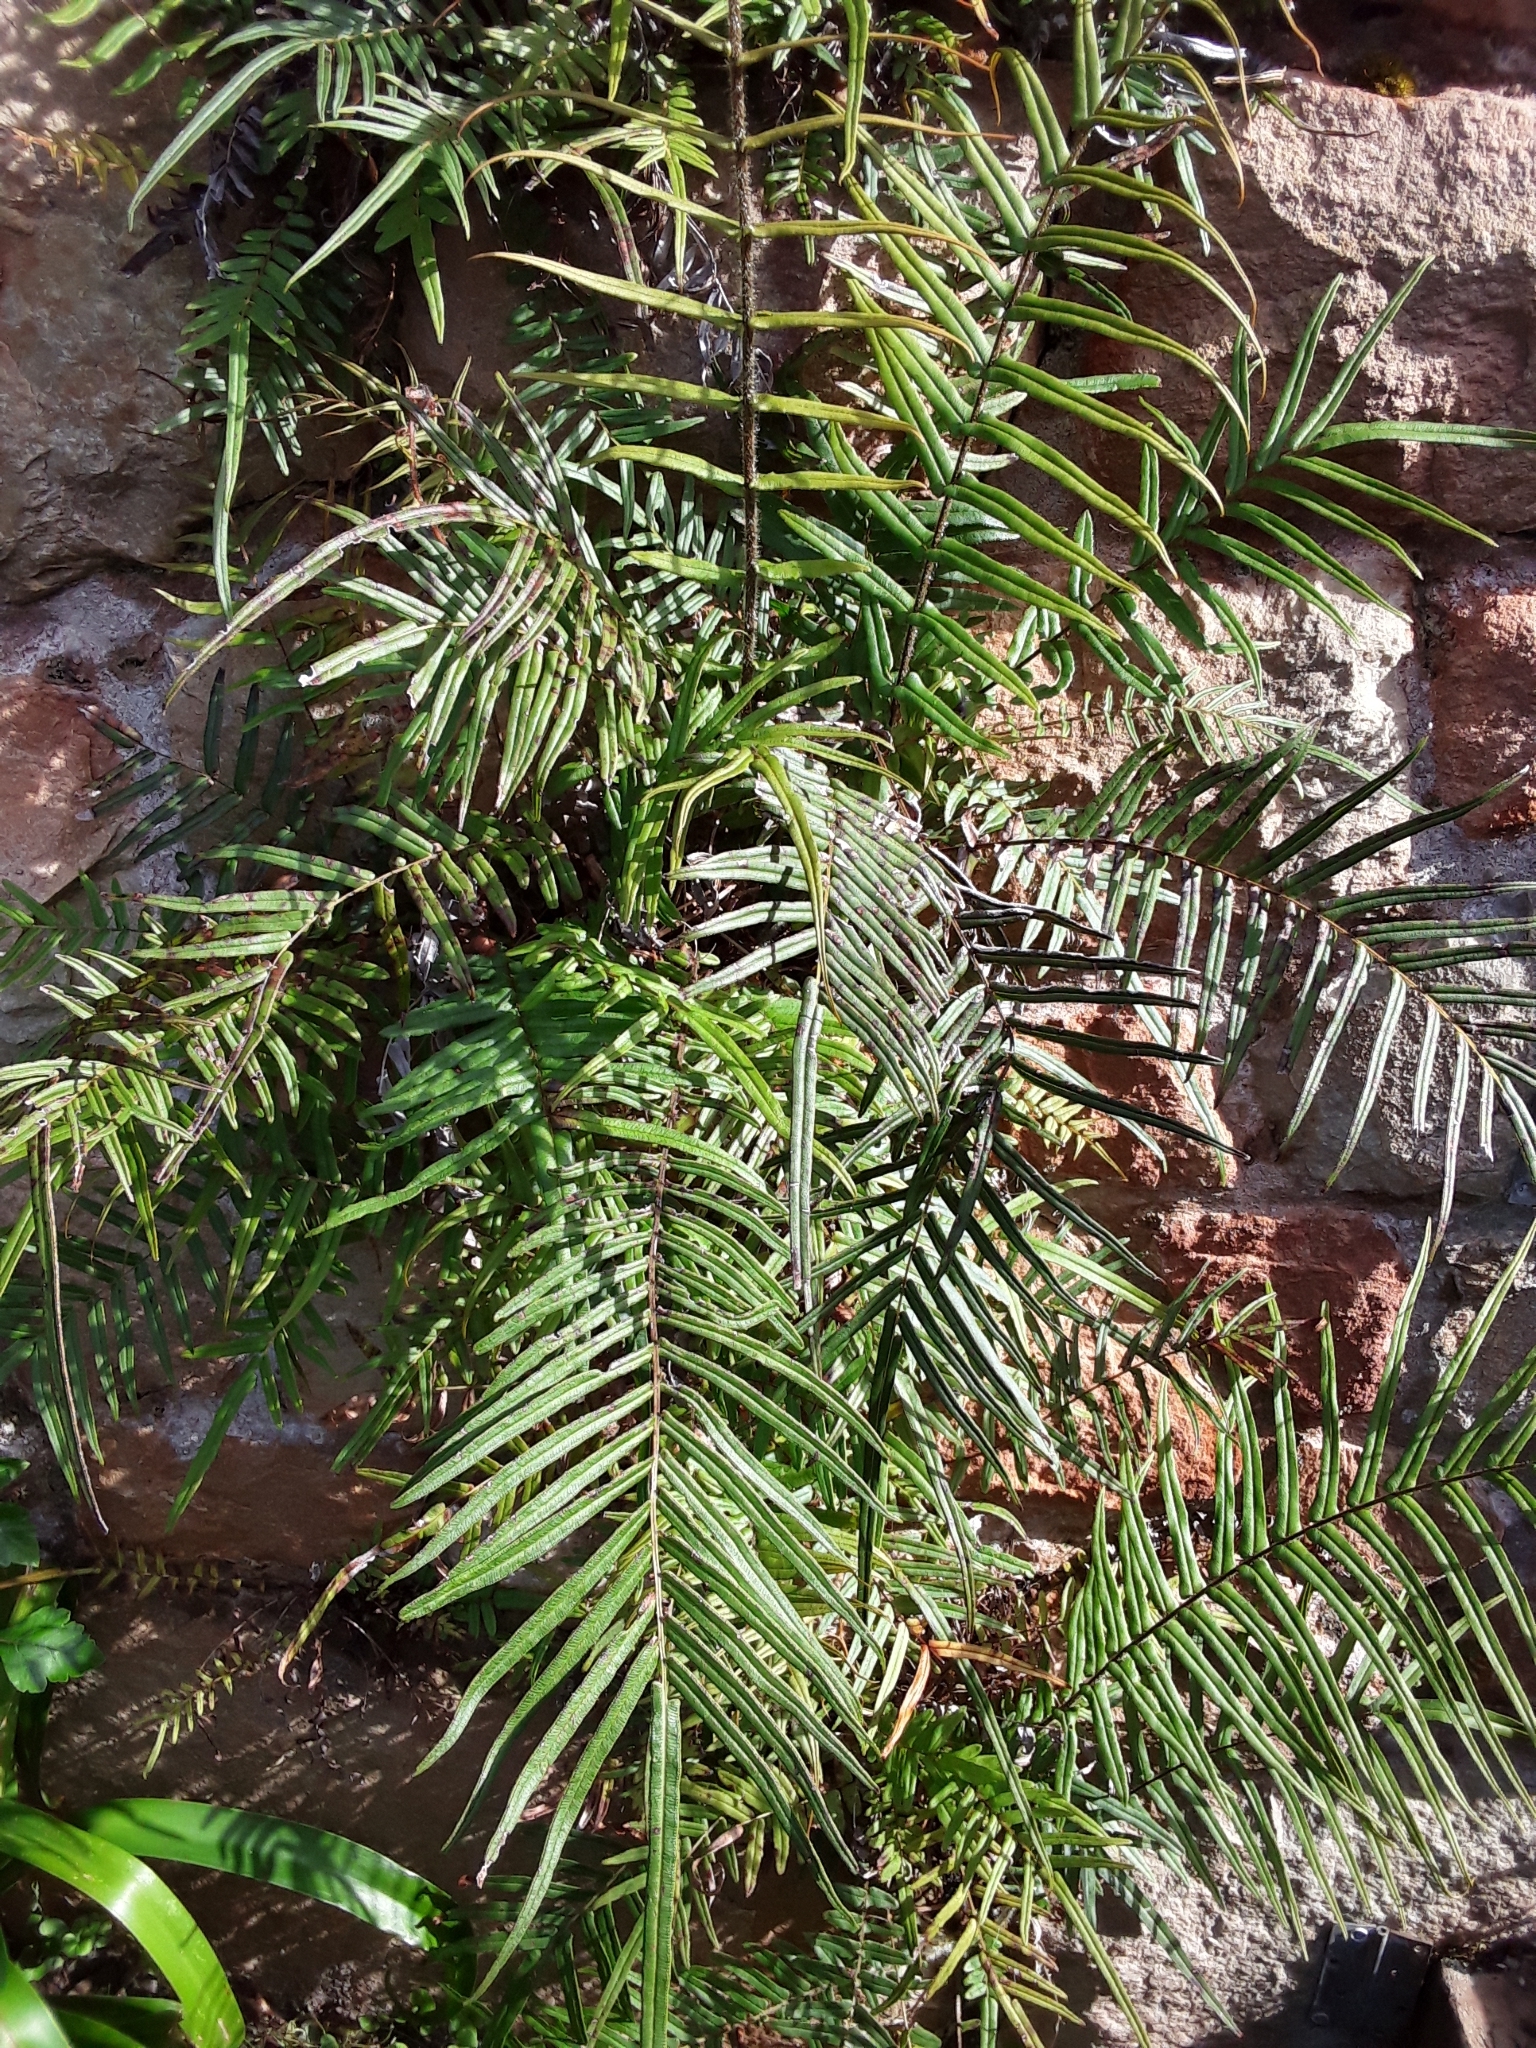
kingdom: Plantae
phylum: Tracheophyta
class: Polypodiopsida
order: Polypodiales
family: Pteridaceae
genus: Pteris
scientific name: Pteris vittata
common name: Ladder brake
